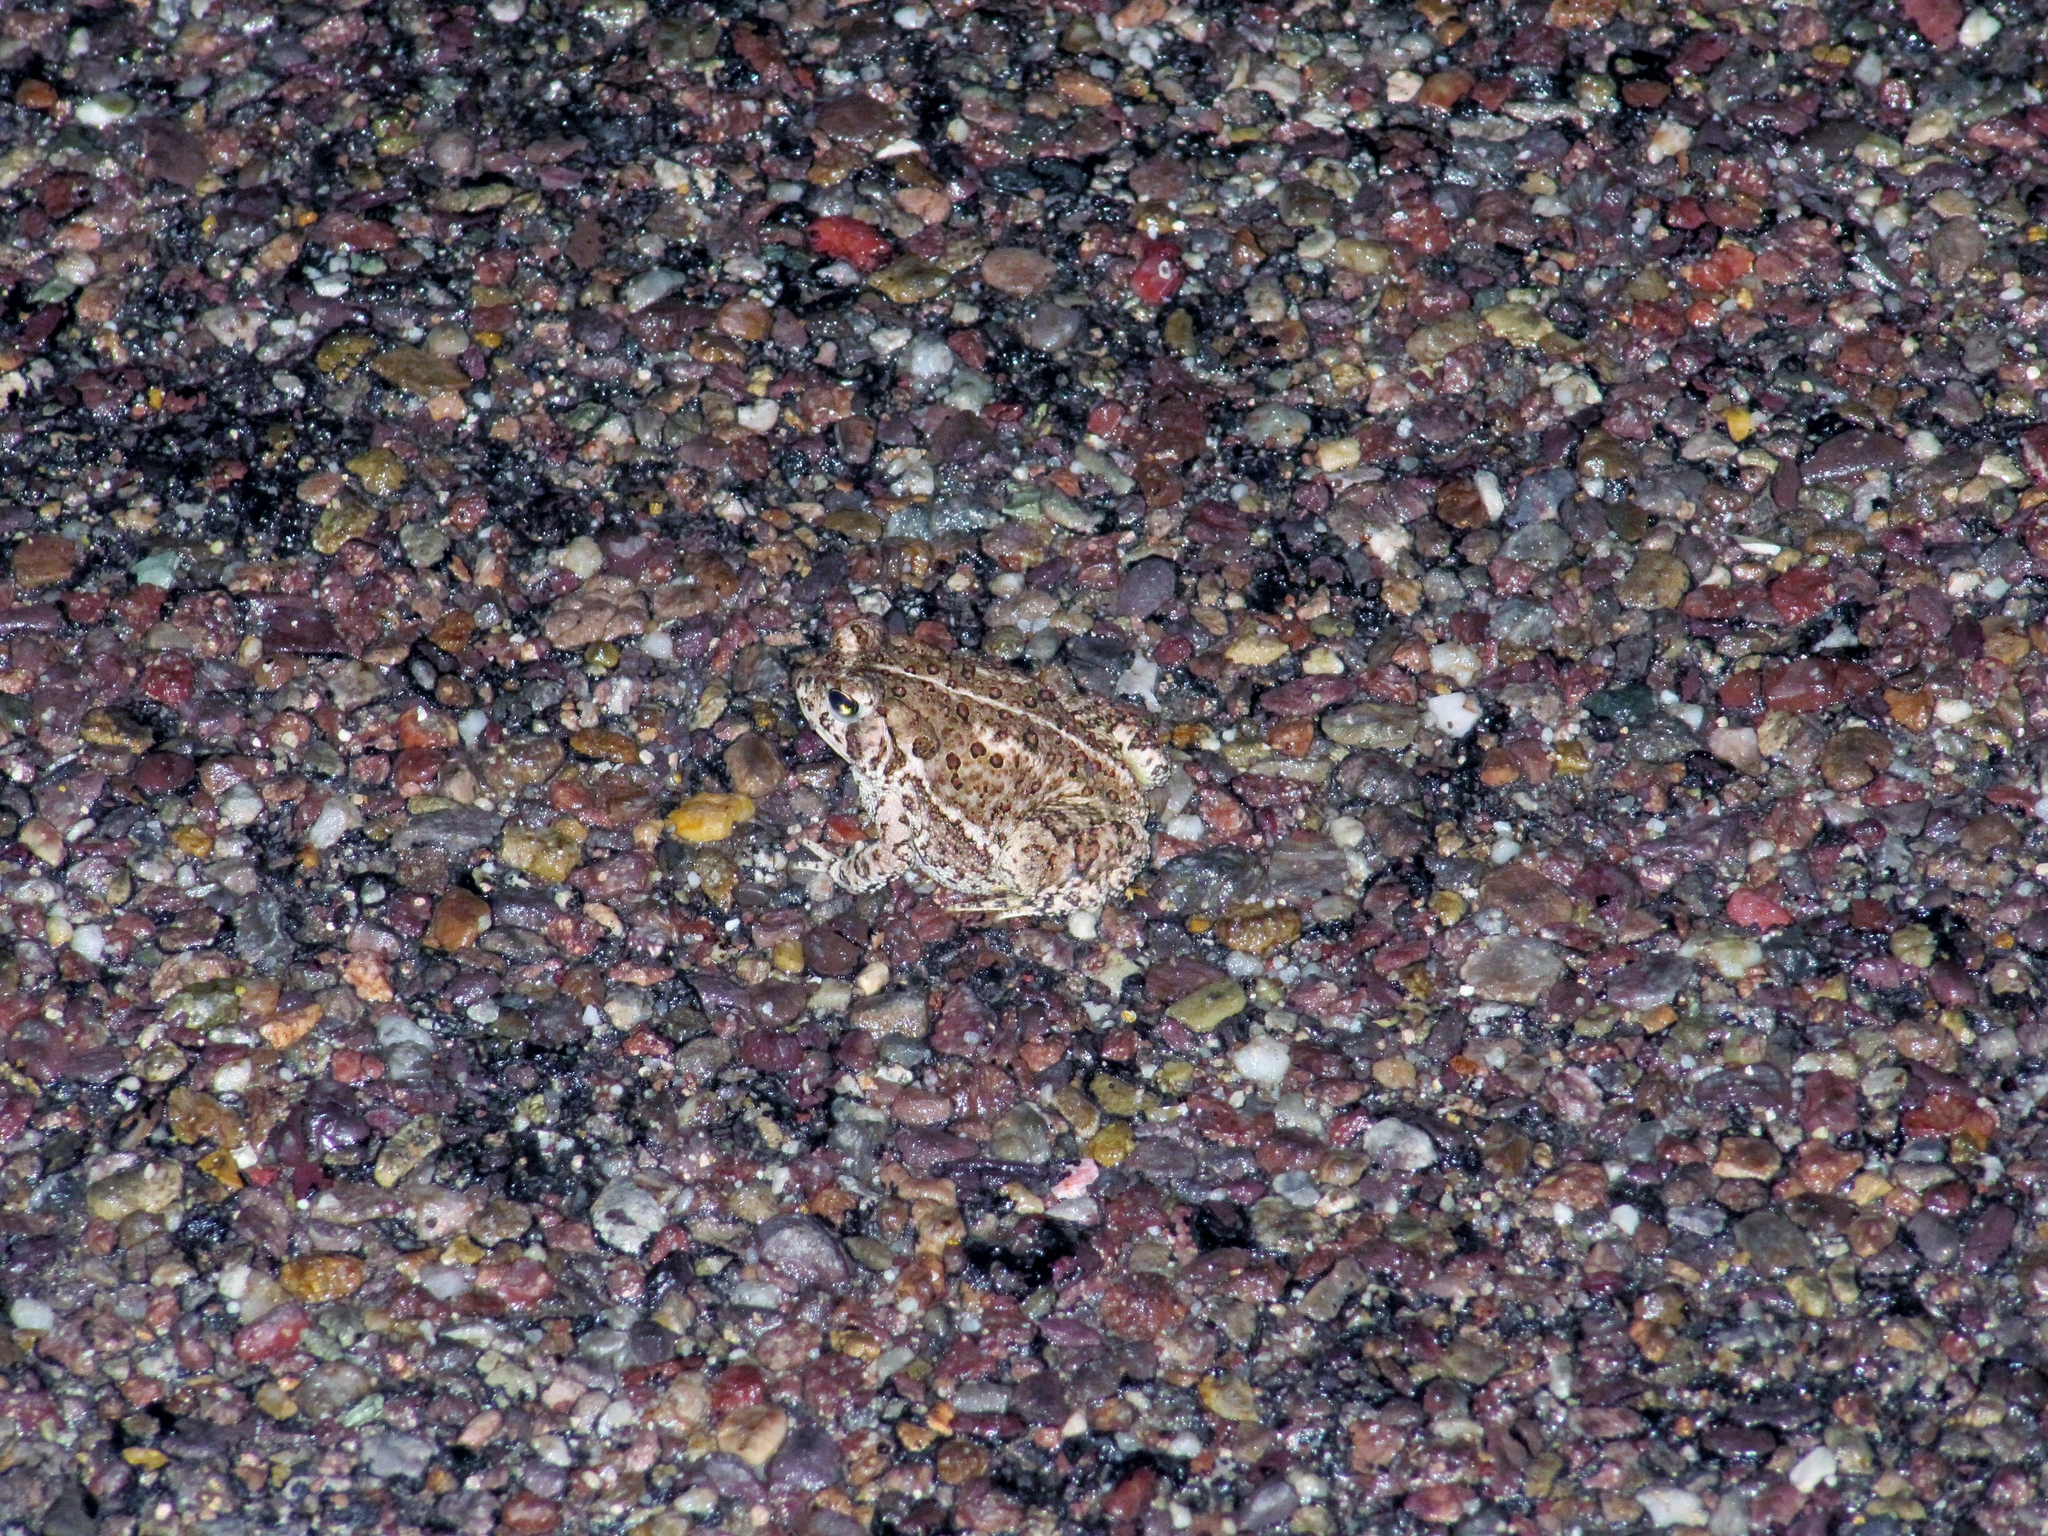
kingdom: Animalia
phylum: Chordata
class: Amphibia
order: Anura
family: Bufonidae
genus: Anaxyrus
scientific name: Anaxyrus woodhousii
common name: Woodhouse's toad
